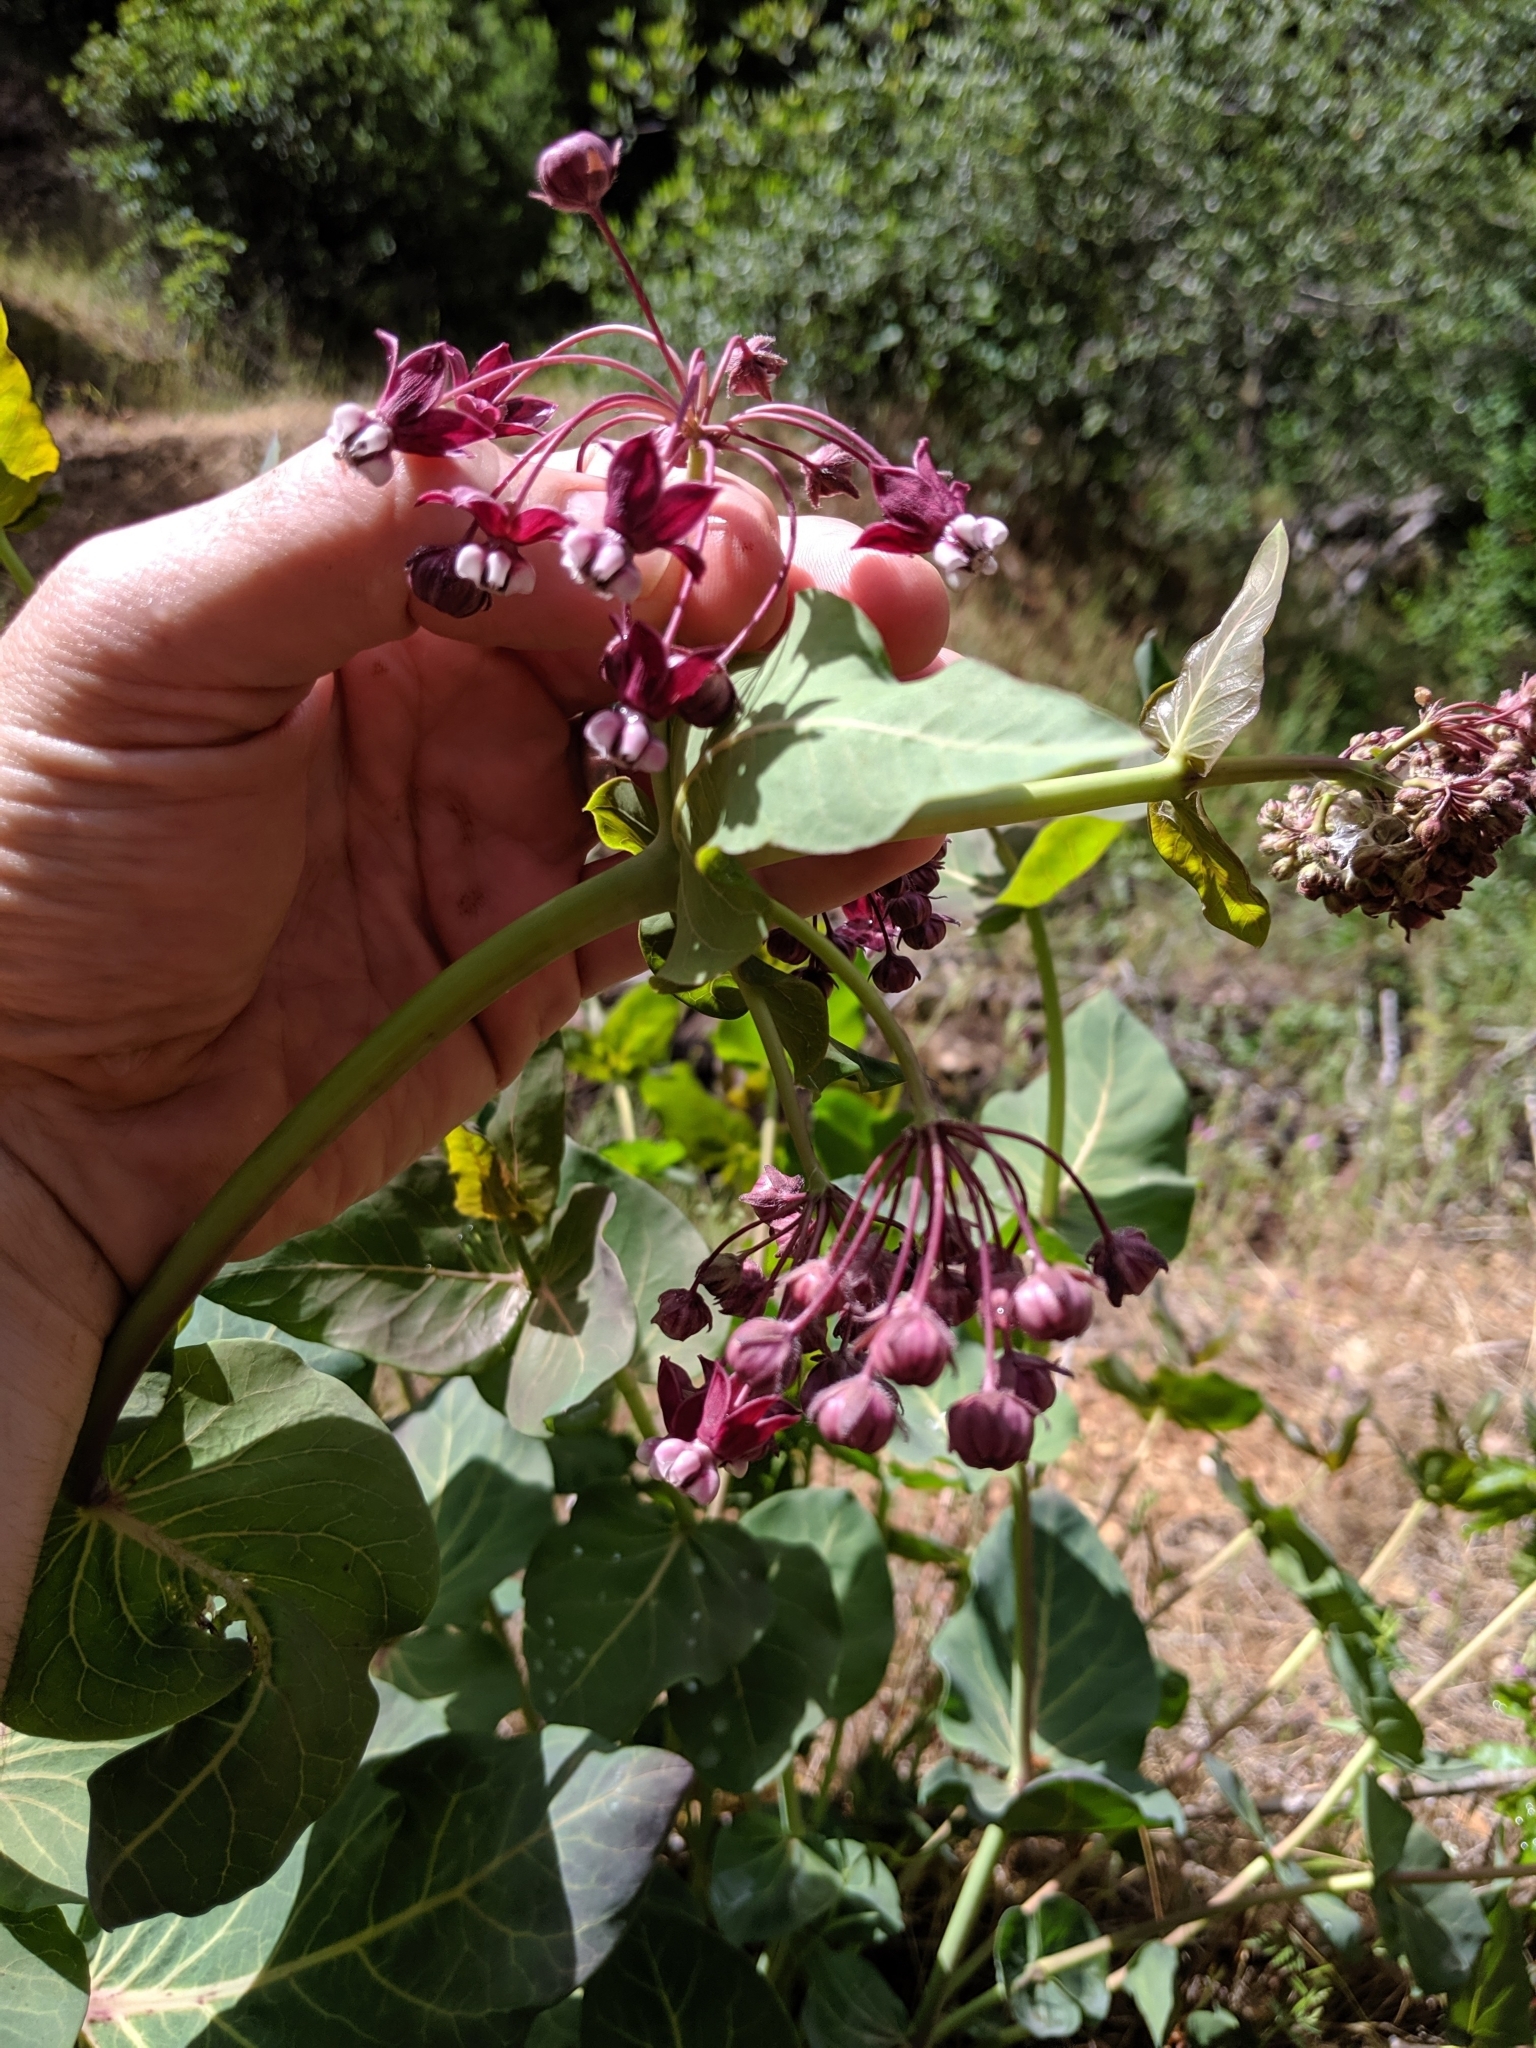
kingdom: Plantae
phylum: Tracheophyta
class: Magnoliopsida
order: Gentianales
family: Apocynaceae
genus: Asclepias
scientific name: Asclepias cordifolia
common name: Purple milkweed
